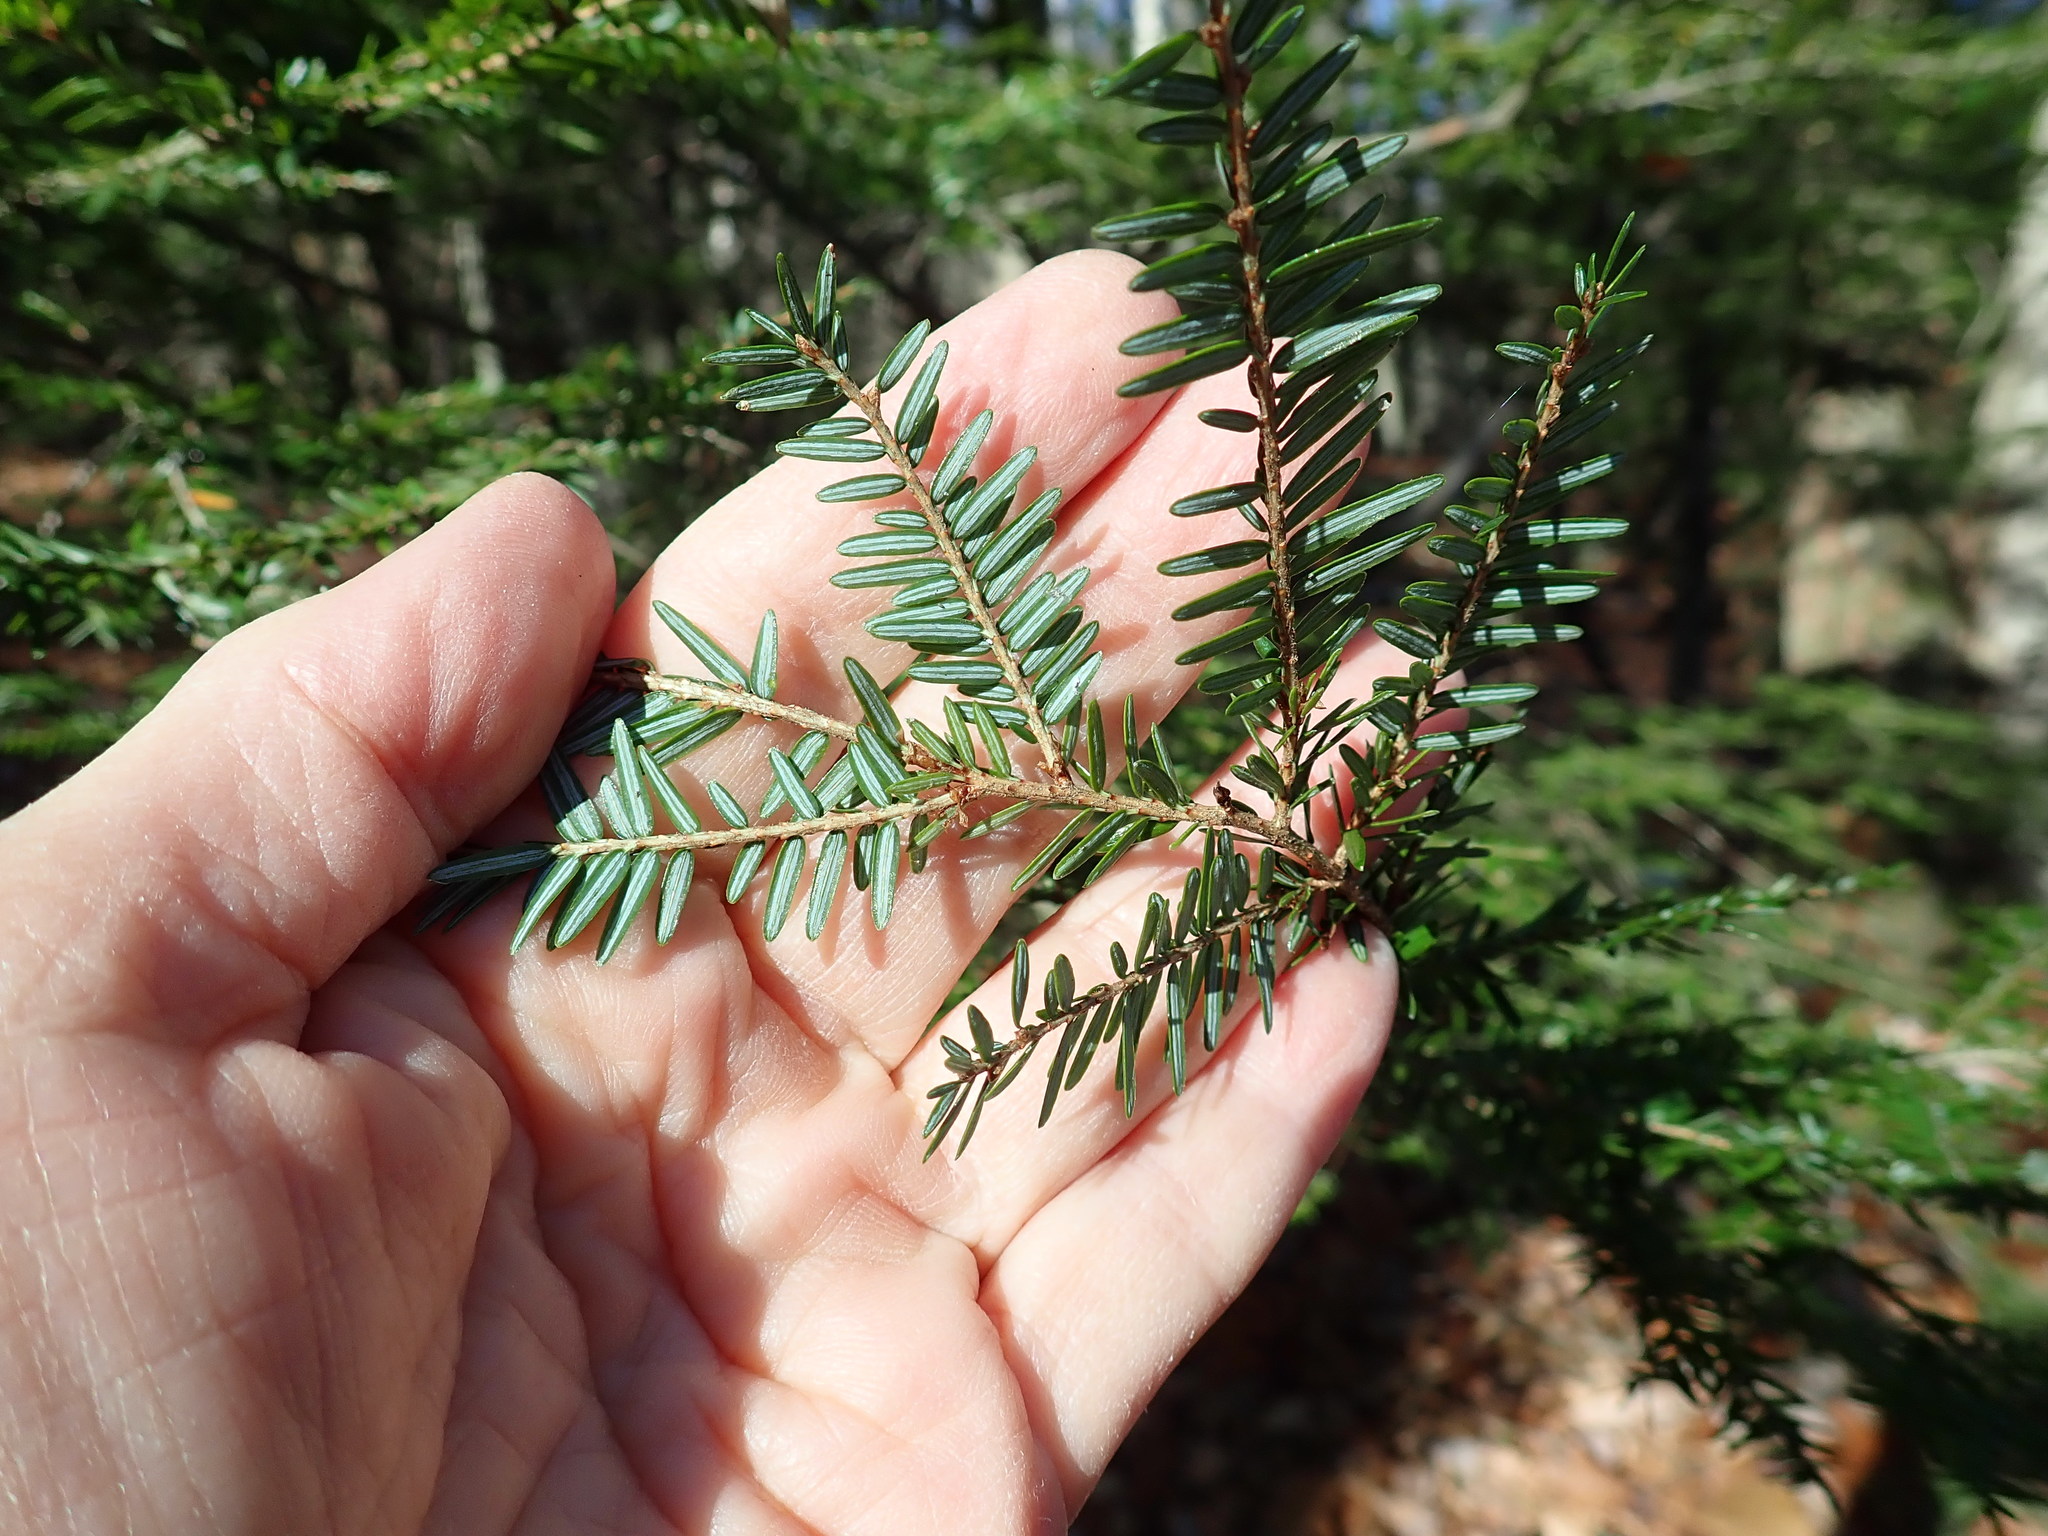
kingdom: Plantae
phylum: Tracheophyta
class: Pinopsida
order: Pinales
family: Pinaceae
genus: Tsuga
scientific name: Tsuga canadensis
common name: Eastern hemlock
